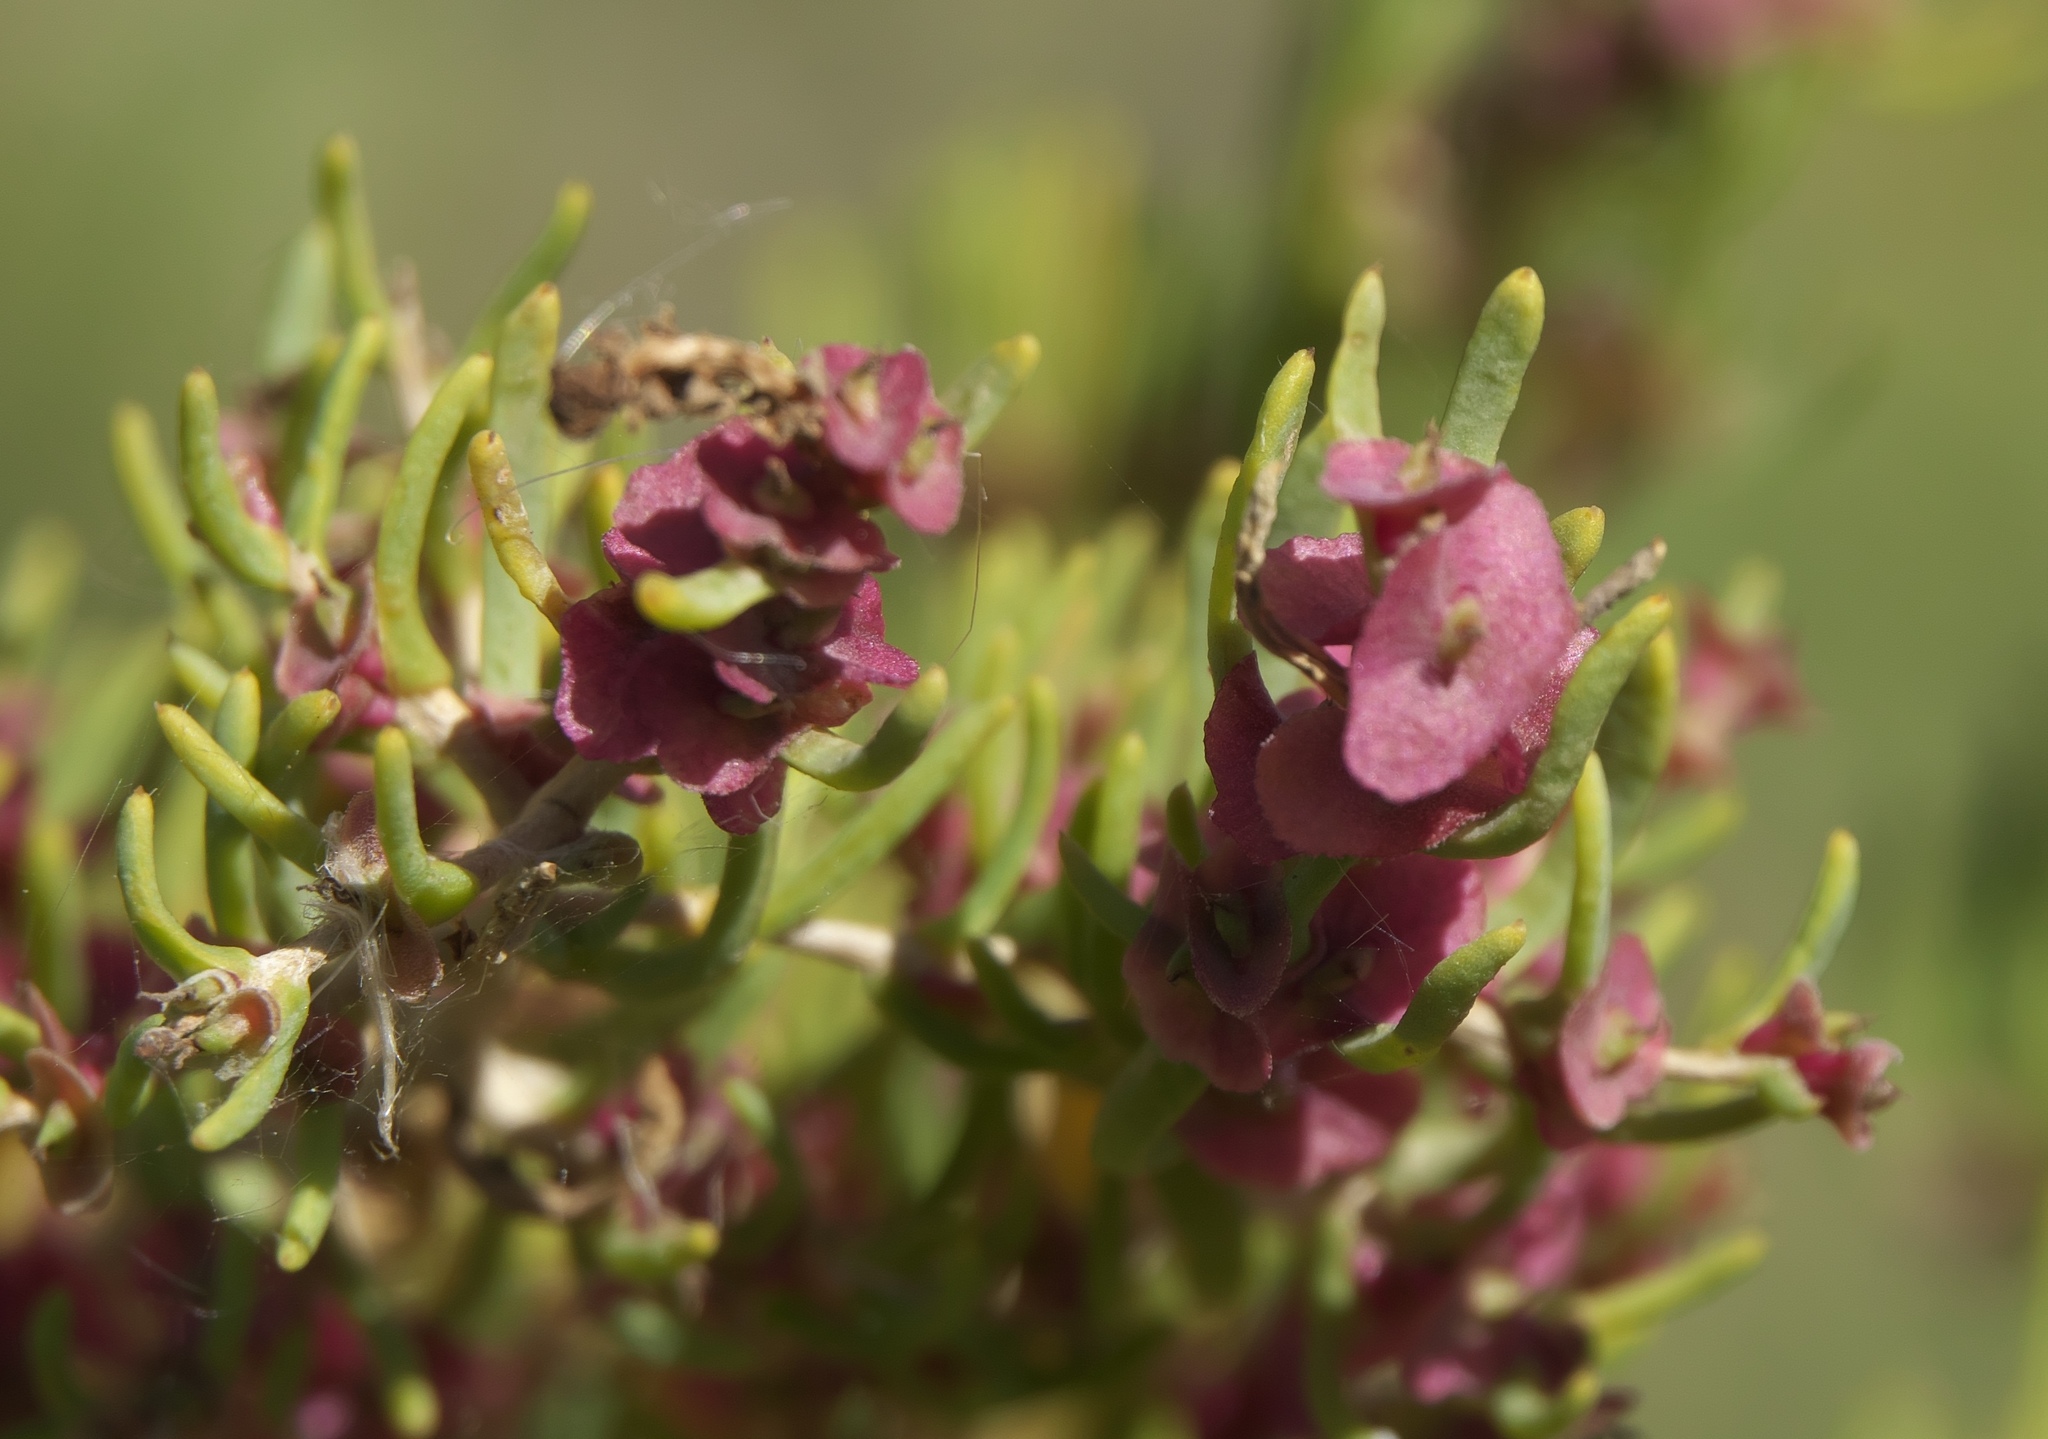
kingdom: Plantae
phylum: Tracheophyta
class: Magnoliopsida
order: Caryophyllales
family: Sarcobataceae
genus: Sarcobatus
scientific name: Sarcobatus vermiculatus
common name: Greasewood
